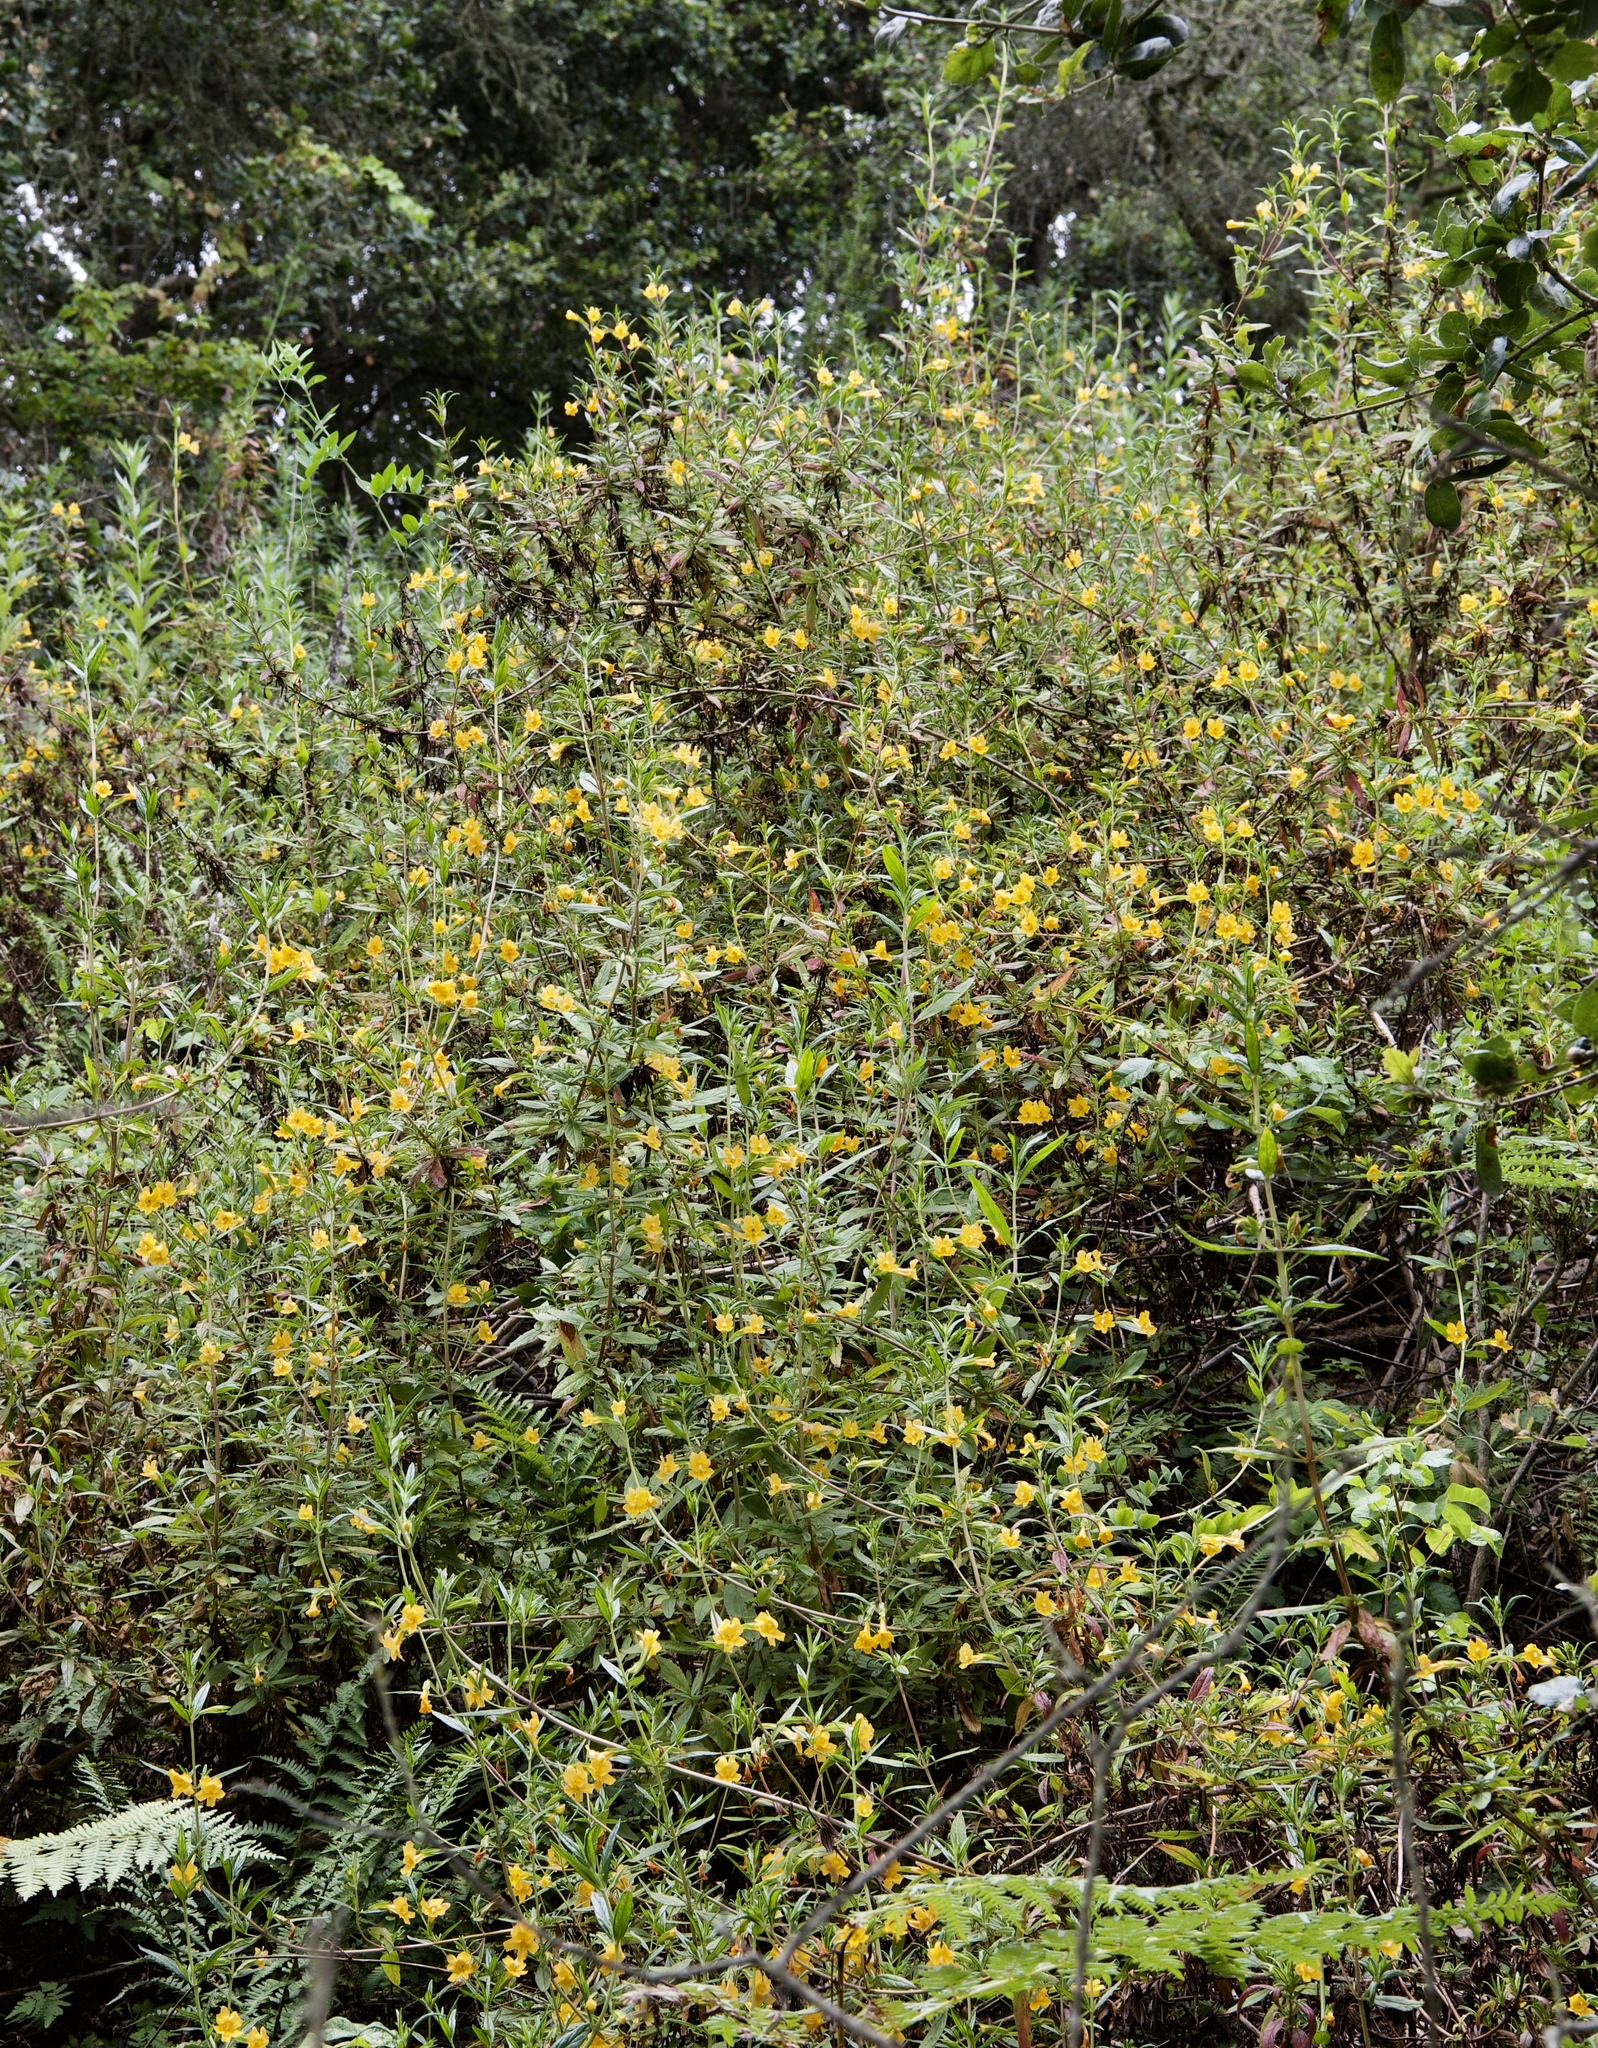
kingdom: Plantae
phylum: Tracheophyta
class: Magnoliopsida
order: Lamiales
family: Phrymaceae
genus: Diplacus
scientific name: Diplacus aurantiacus
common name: Bush monkey-flower
